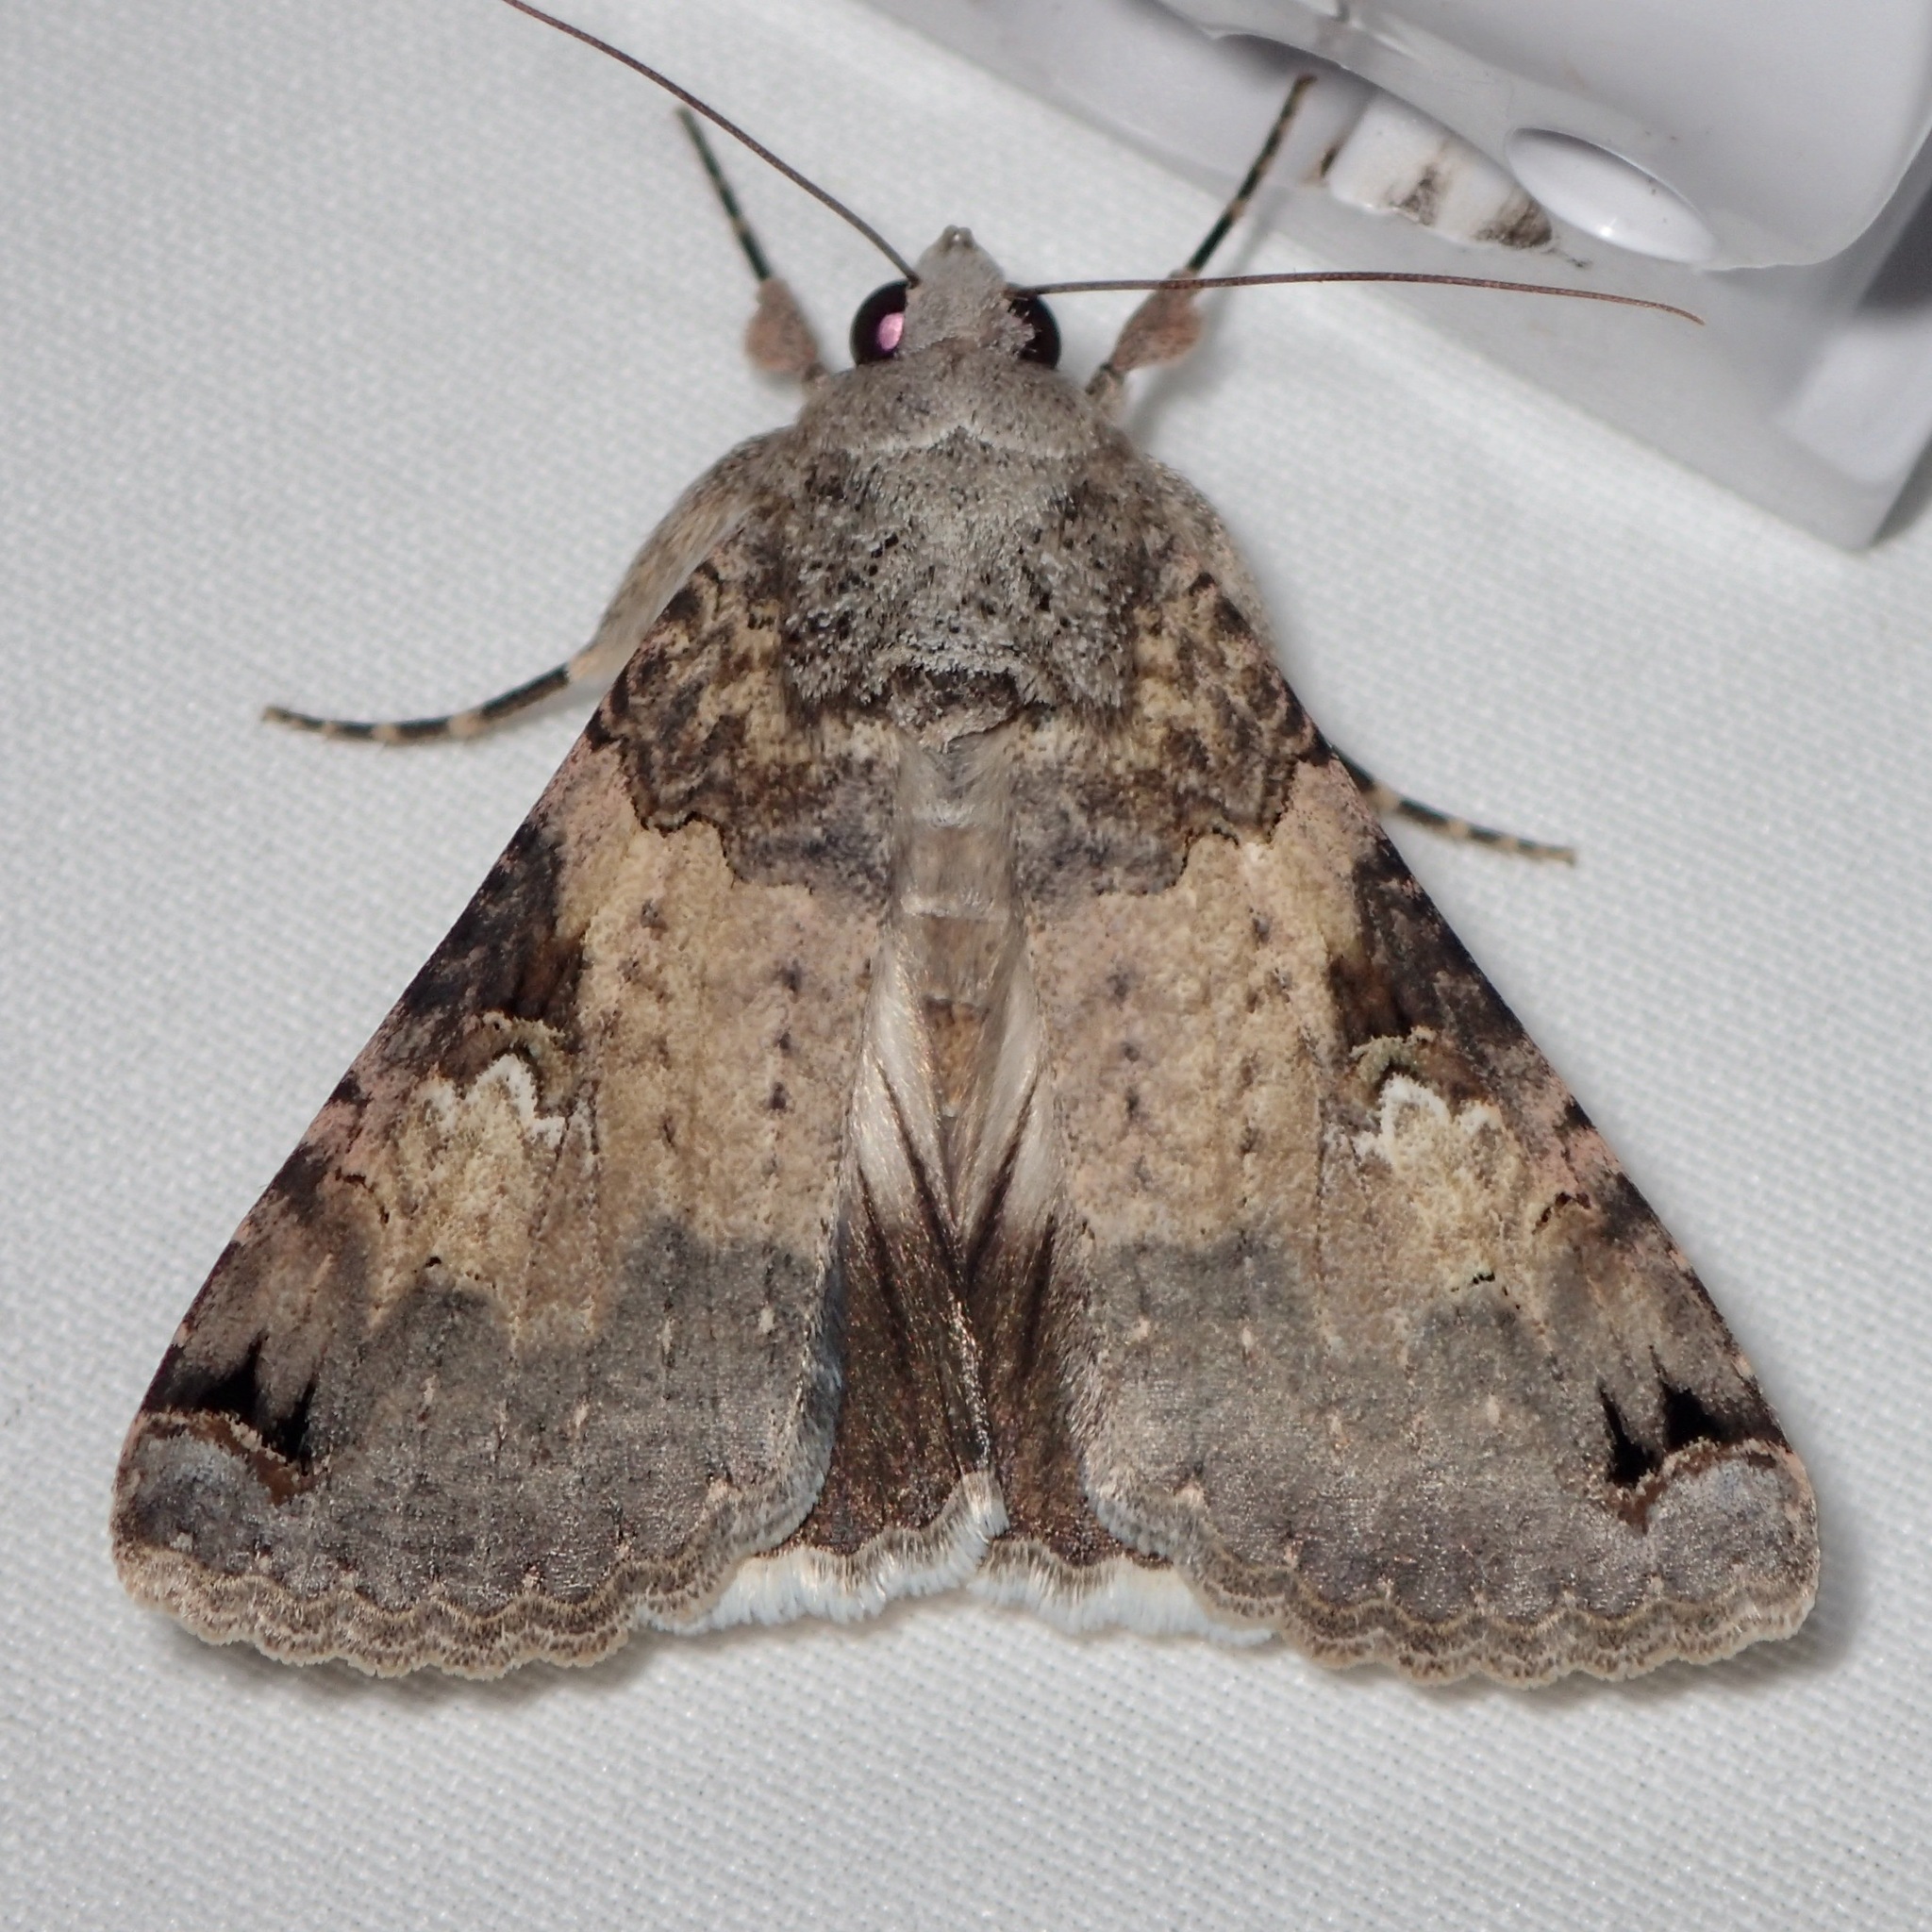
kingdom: Animalia
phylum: Arthropoda
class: Insecta
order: Lepidoptera
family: Erebidae
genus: Melipotis
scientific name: Melipotis novanda
